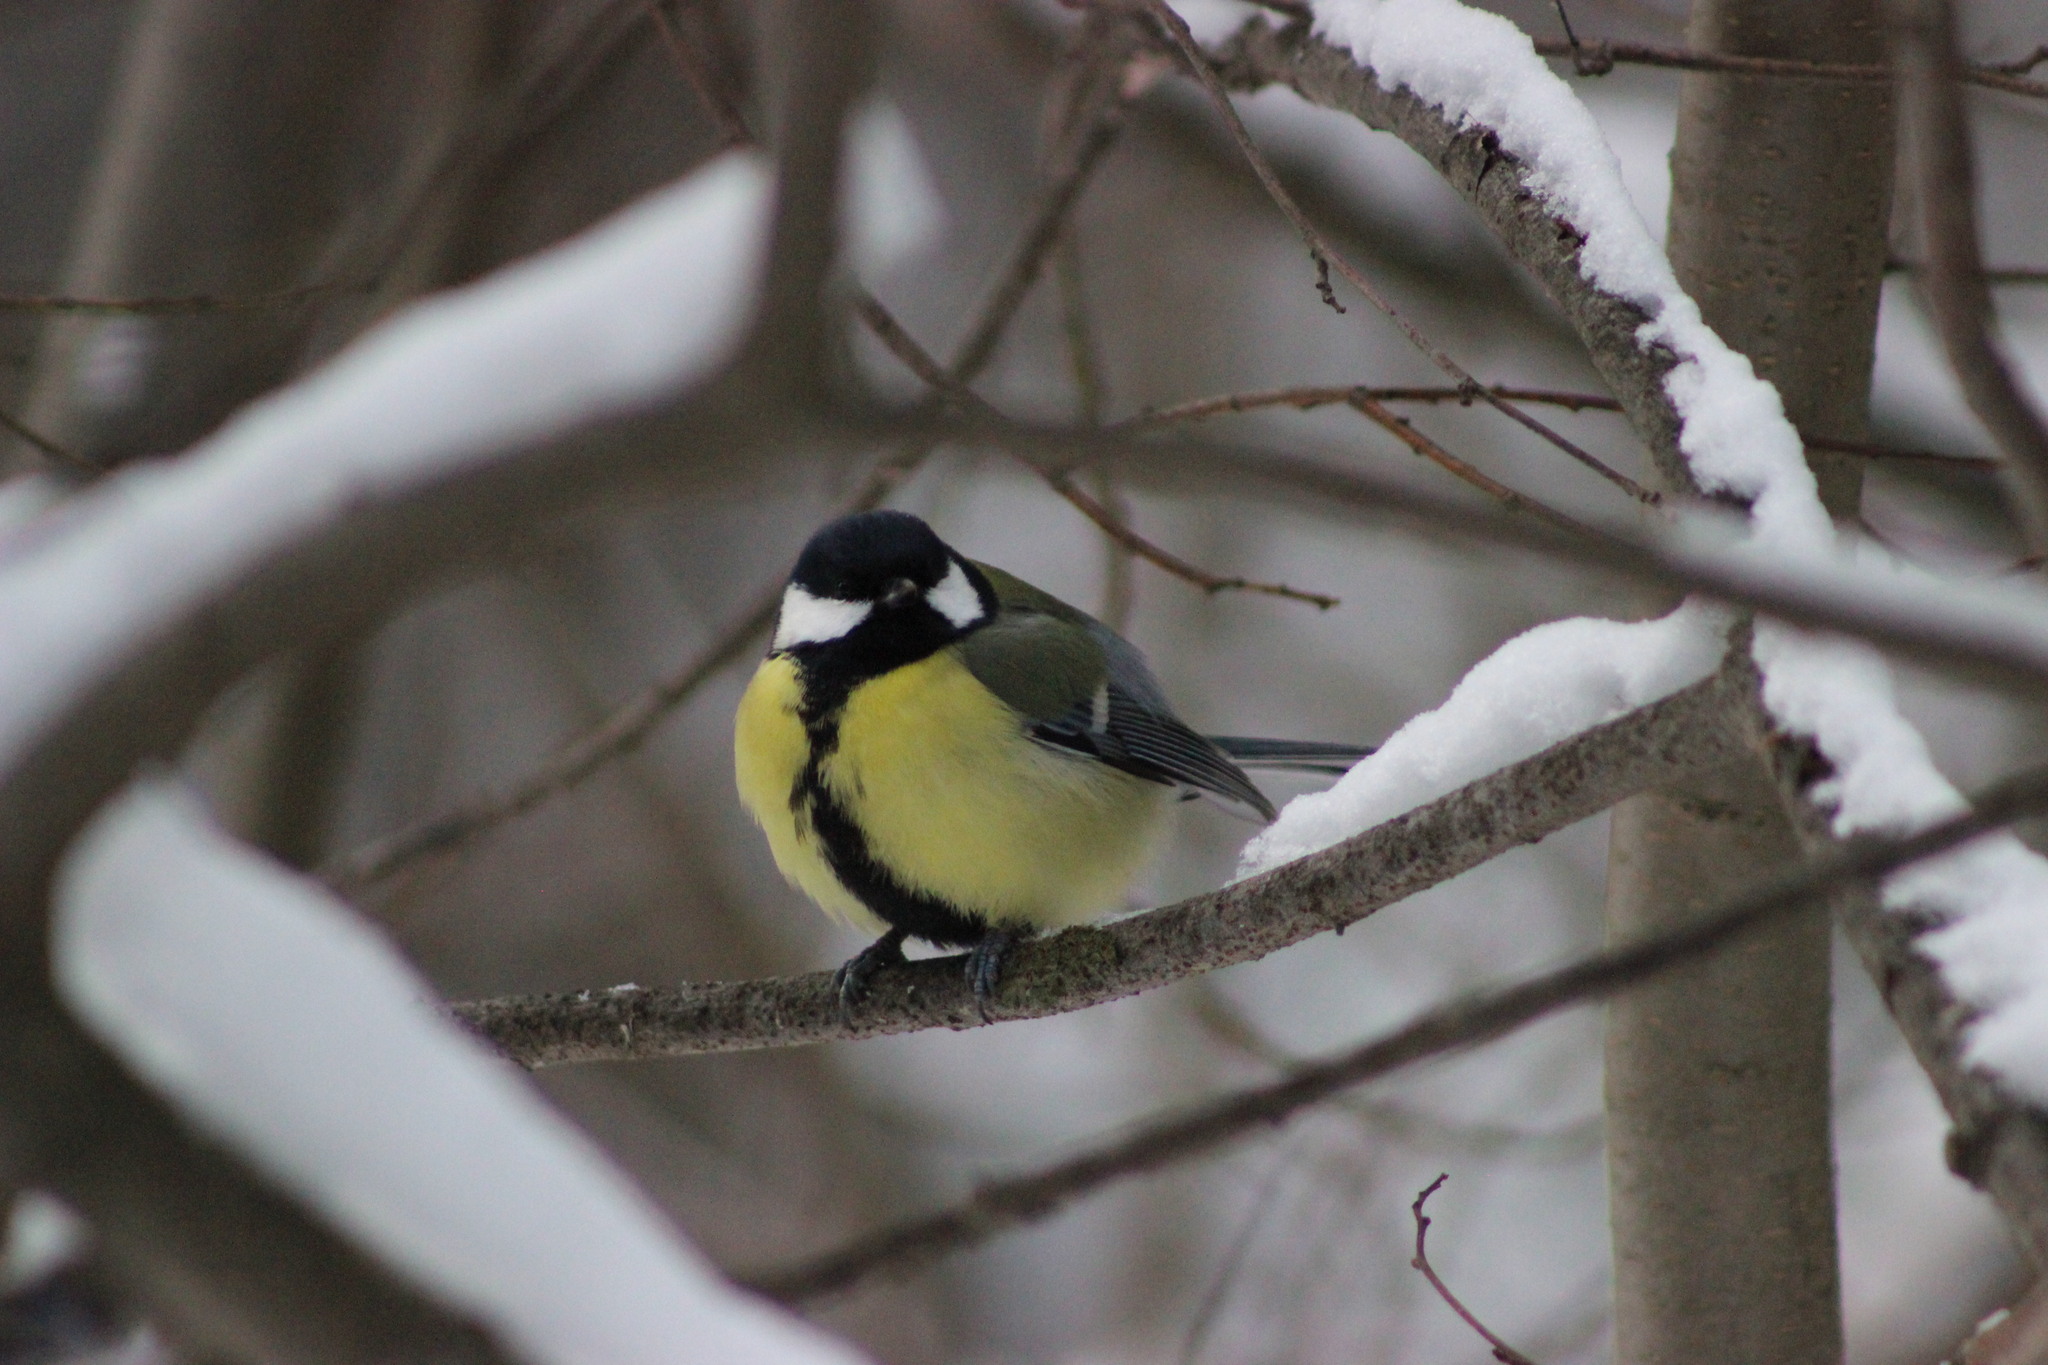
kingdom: Animalia
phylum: Chordata
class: Aves
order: Passeriformes
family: Paridae
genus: Parus
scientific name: Parus major
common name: Great tit
